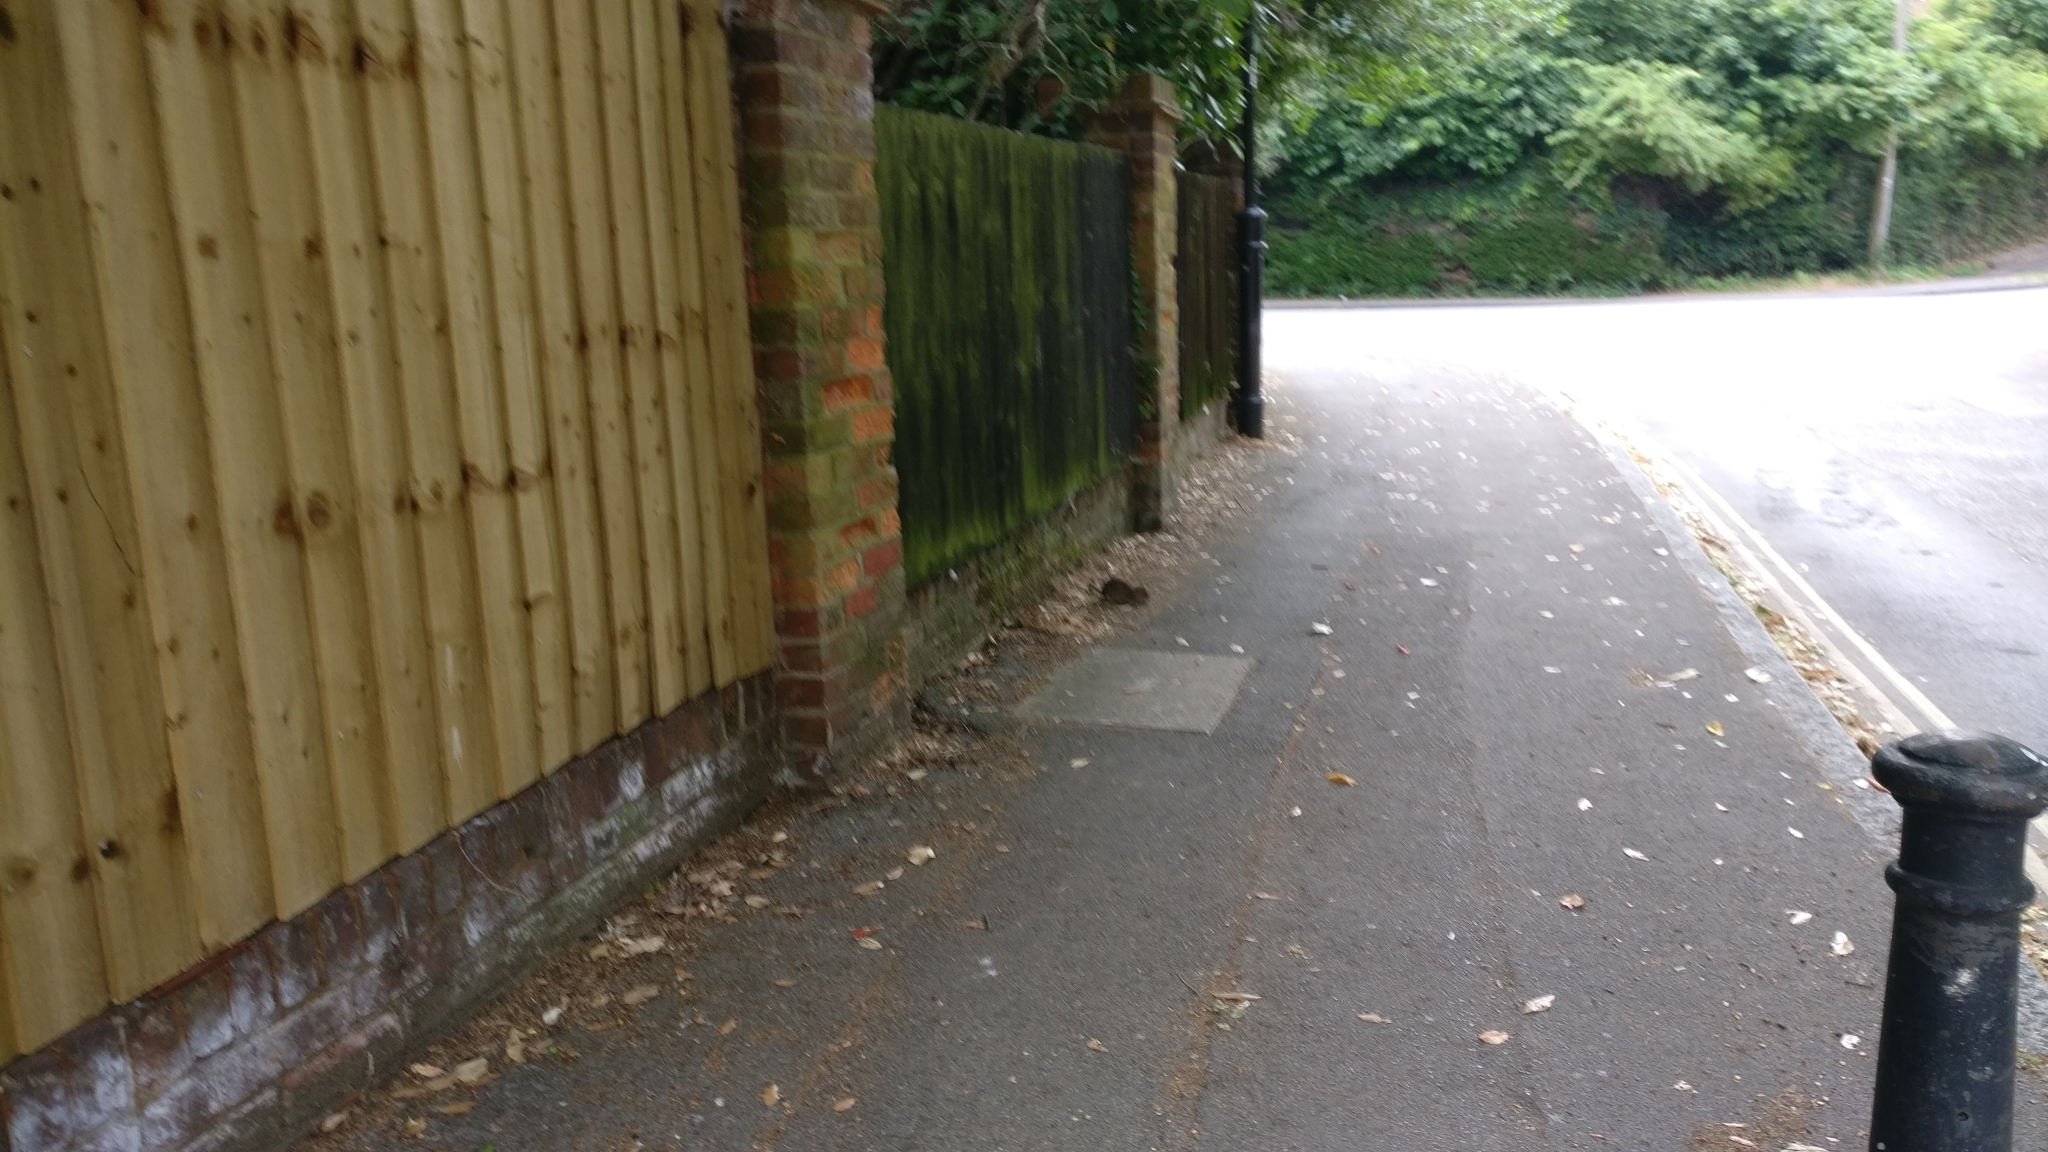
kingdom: Animalia
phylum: Chordata
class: Mammalia
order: Rodentia
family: Muridae
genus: Rattus
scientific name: Rattus norvegicus
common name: Brown rat
